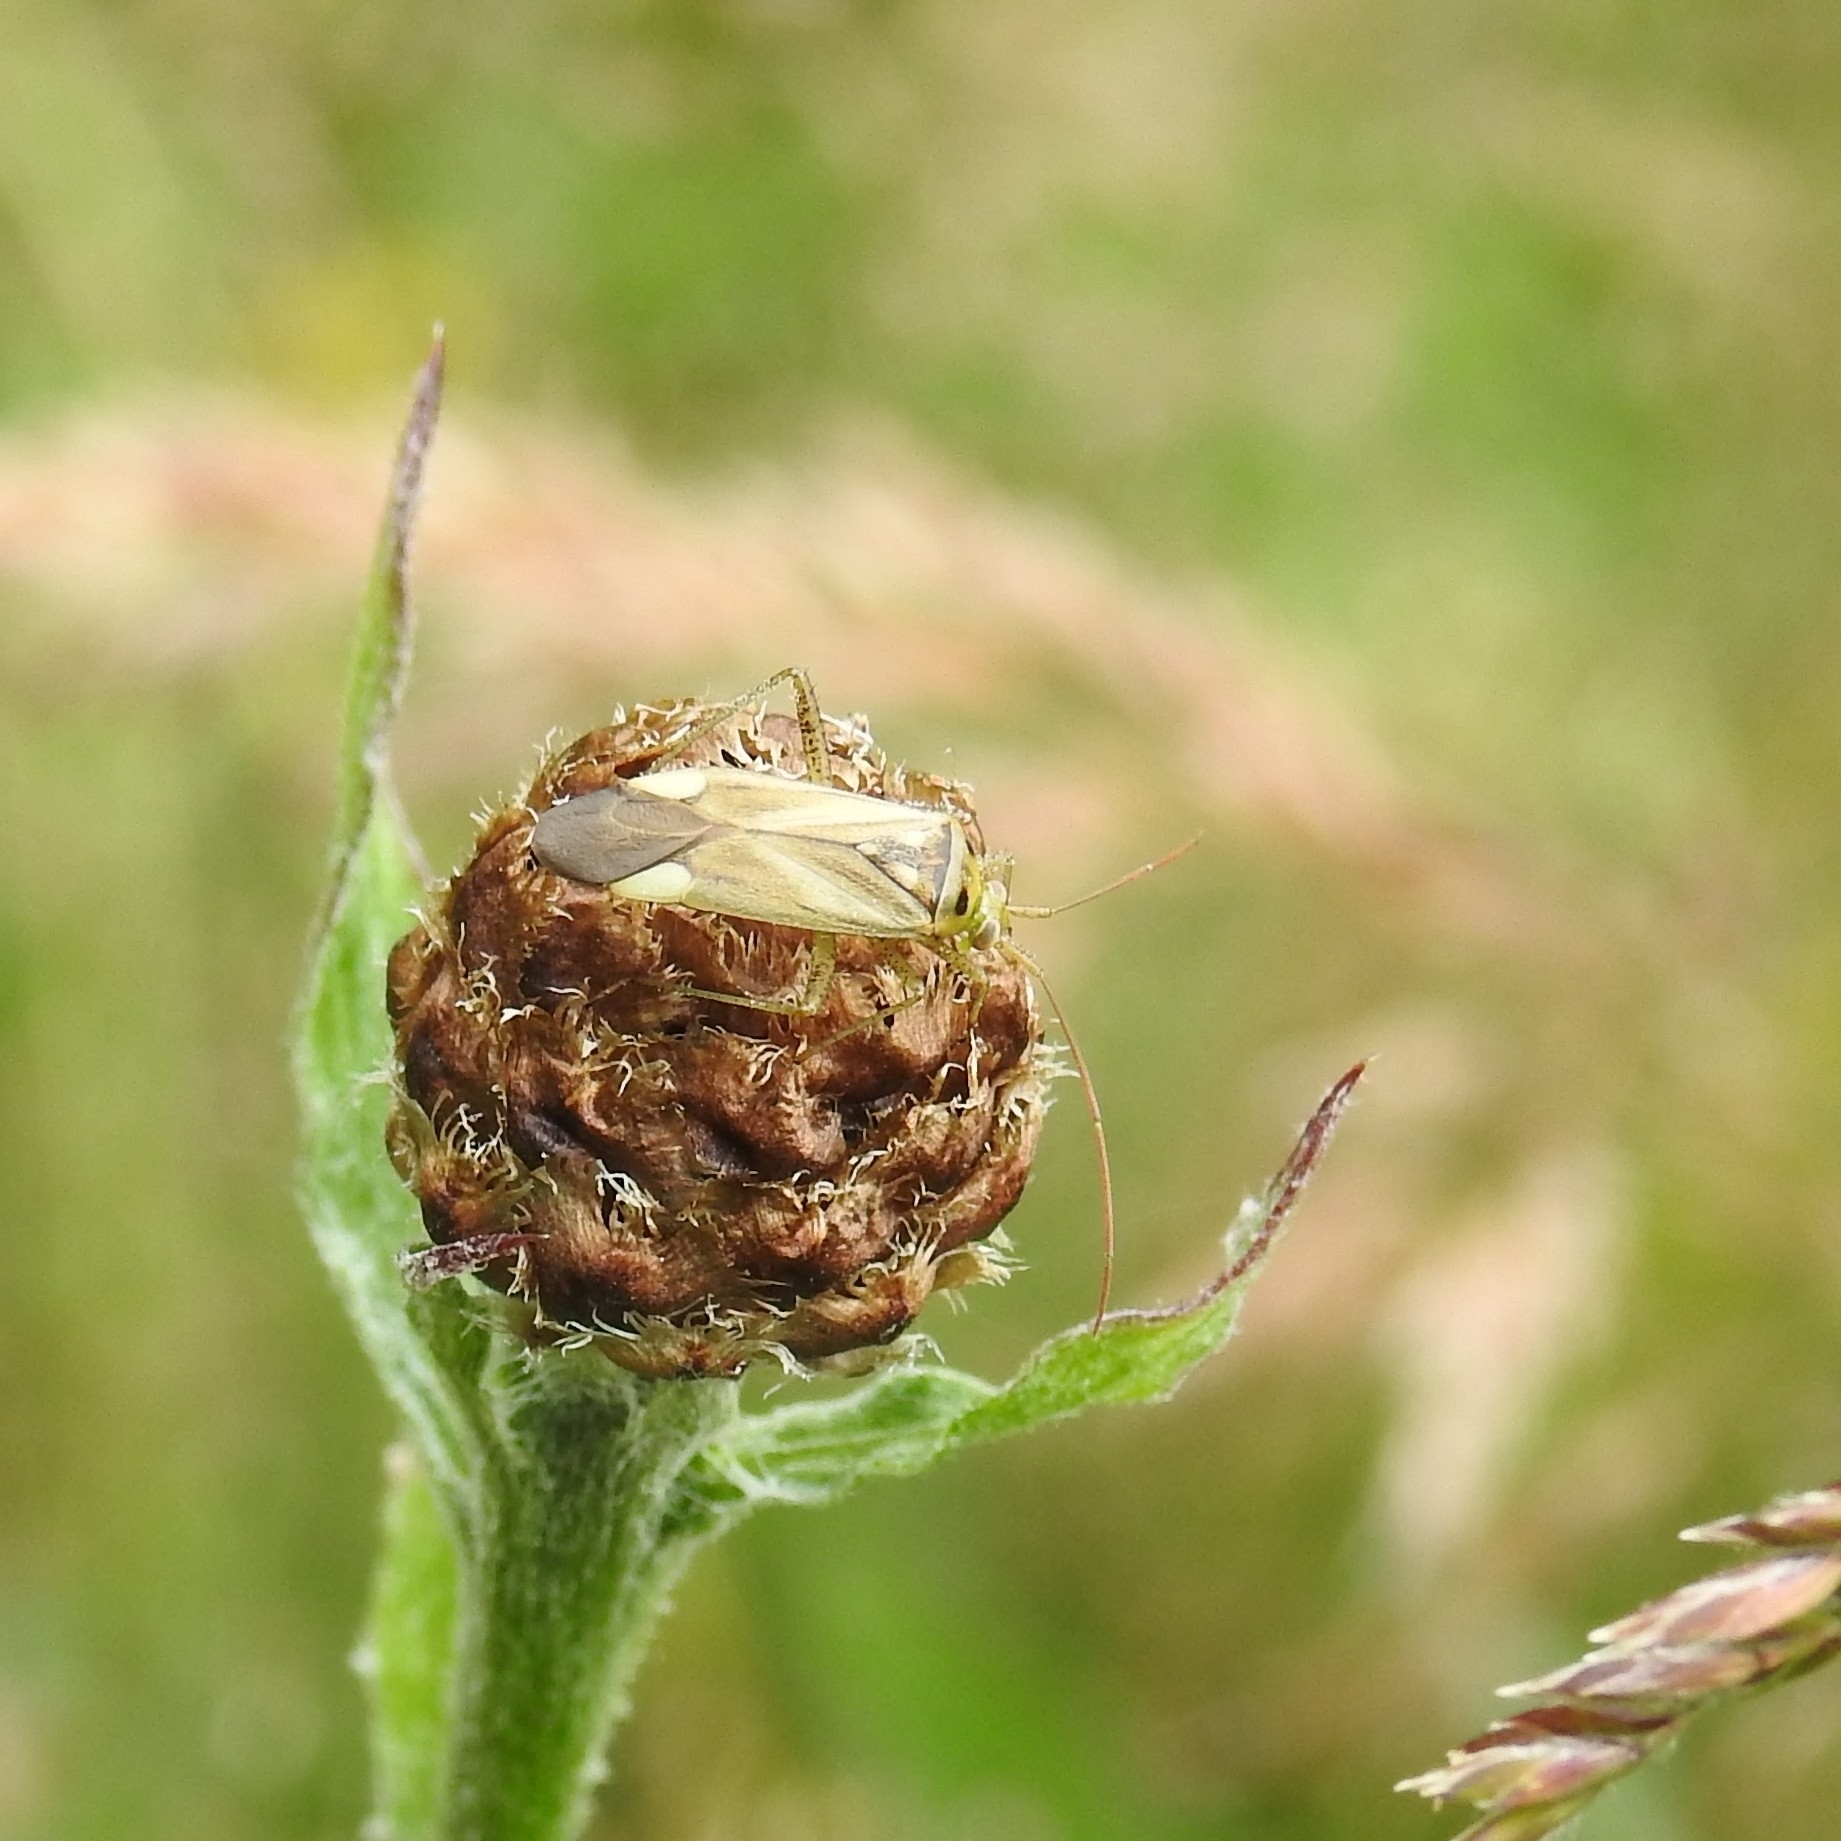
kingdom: Animalia
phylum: Arthropoda
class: Insecta
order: Hemiptera
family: Miridae
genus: Adelphocoris
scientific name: Adelphocoris lineolatus
